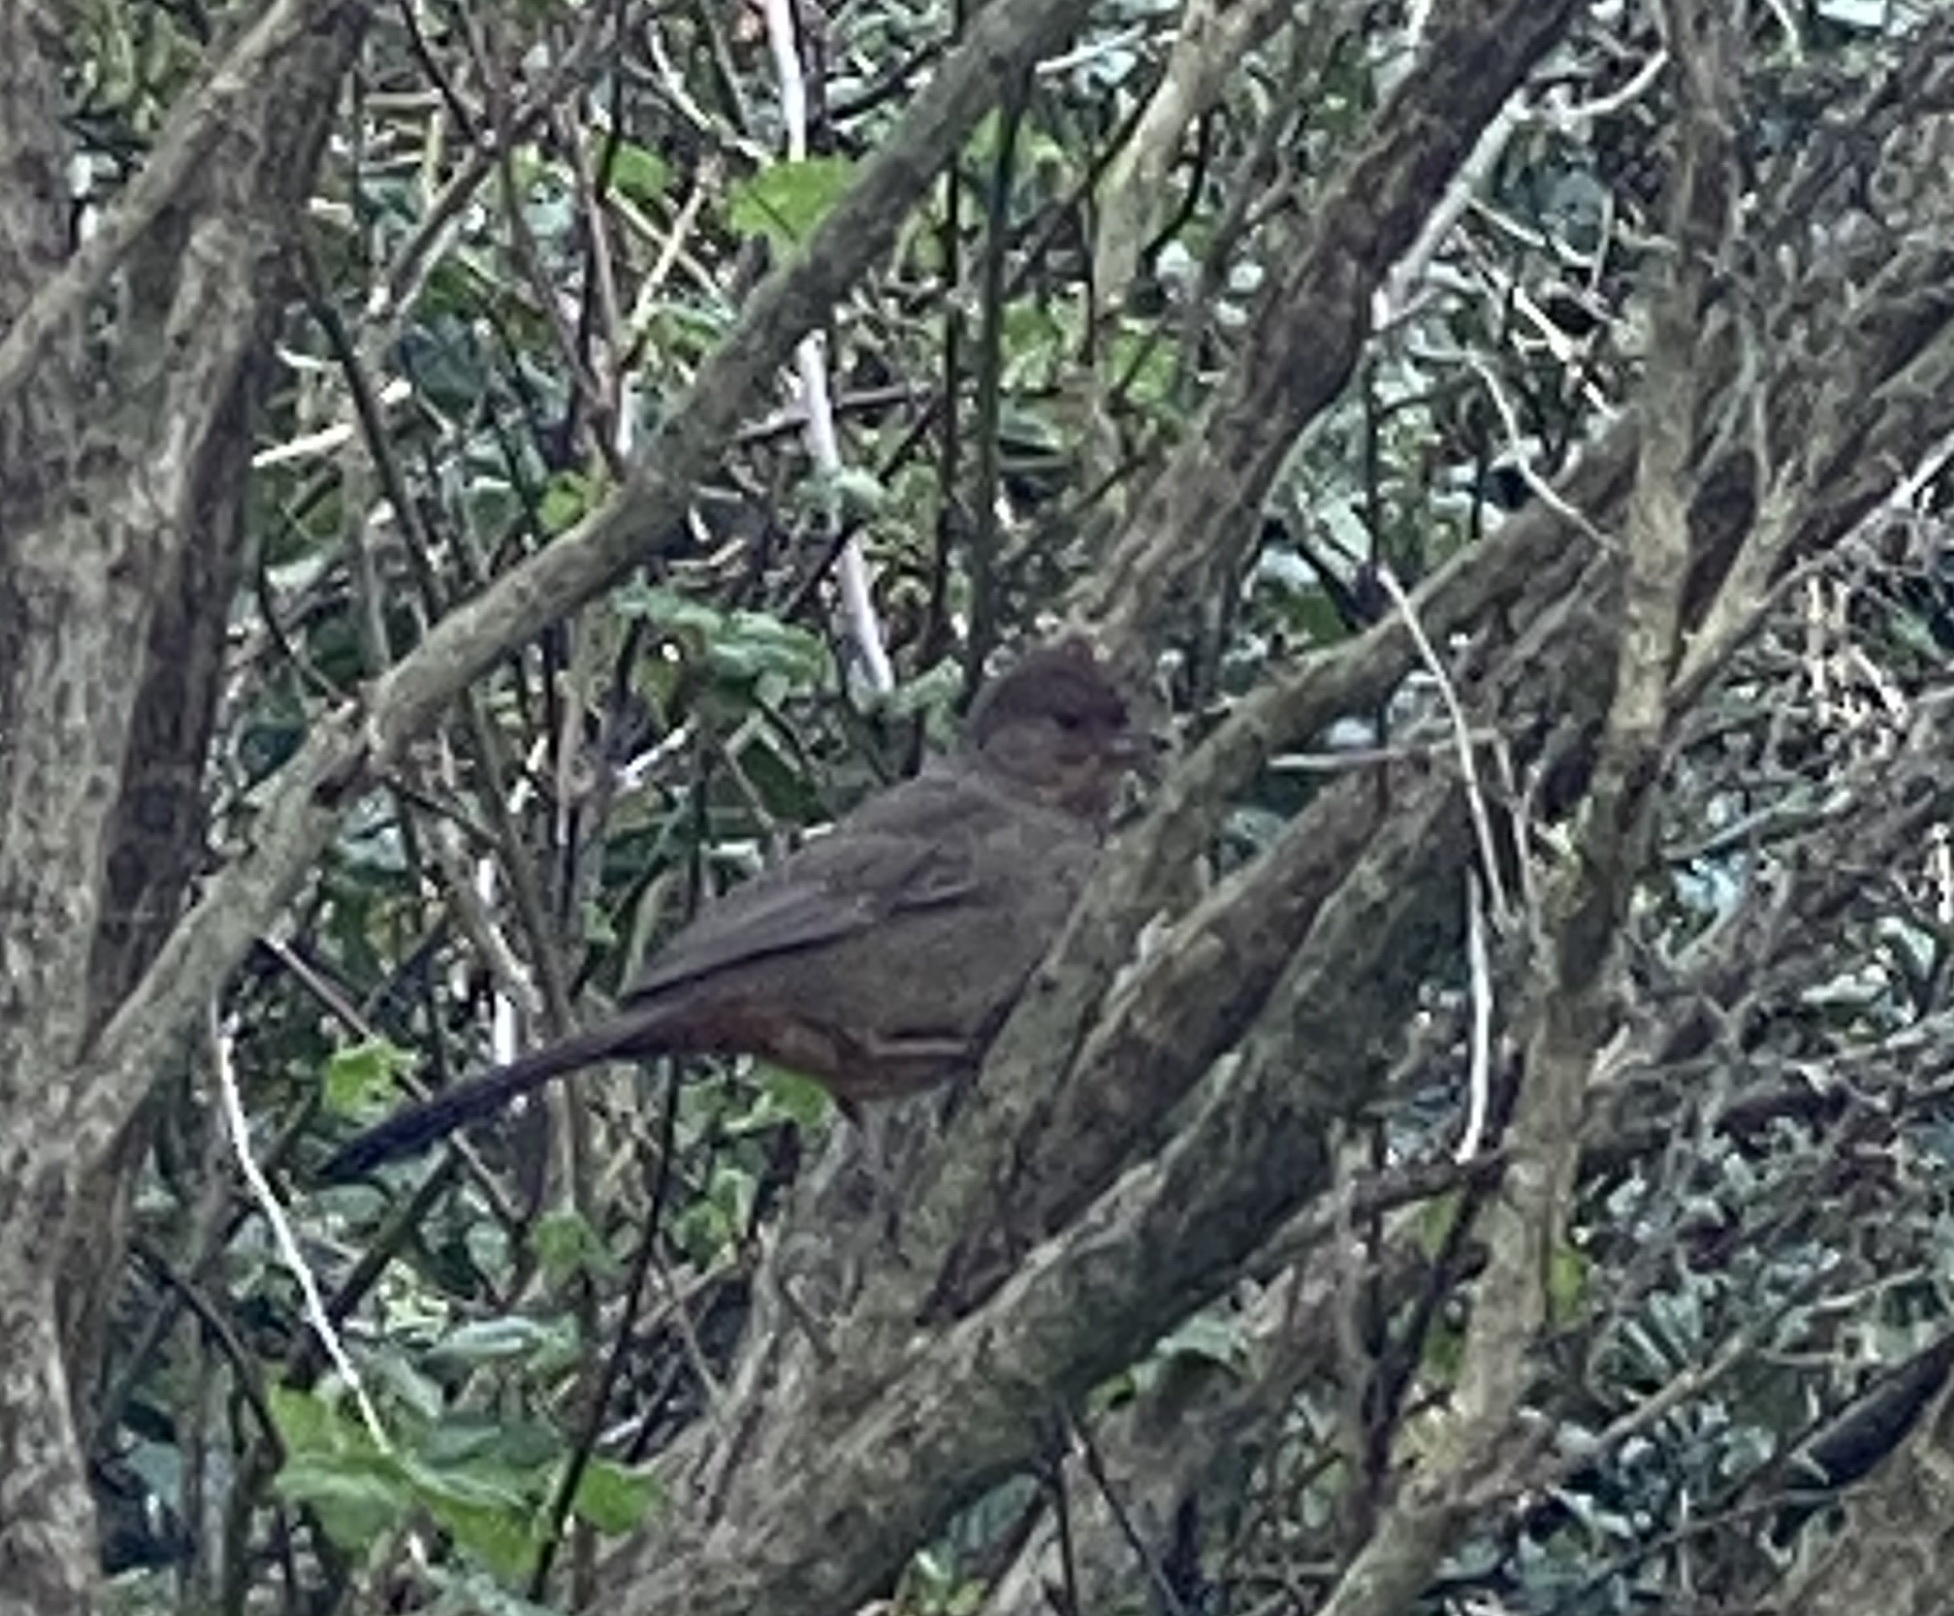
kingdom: Animalia
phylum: Chordata
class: Aves
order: Passeriformes
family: Passerellidae
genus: Melozone
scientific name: Melozone crissalis
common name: California towhee
